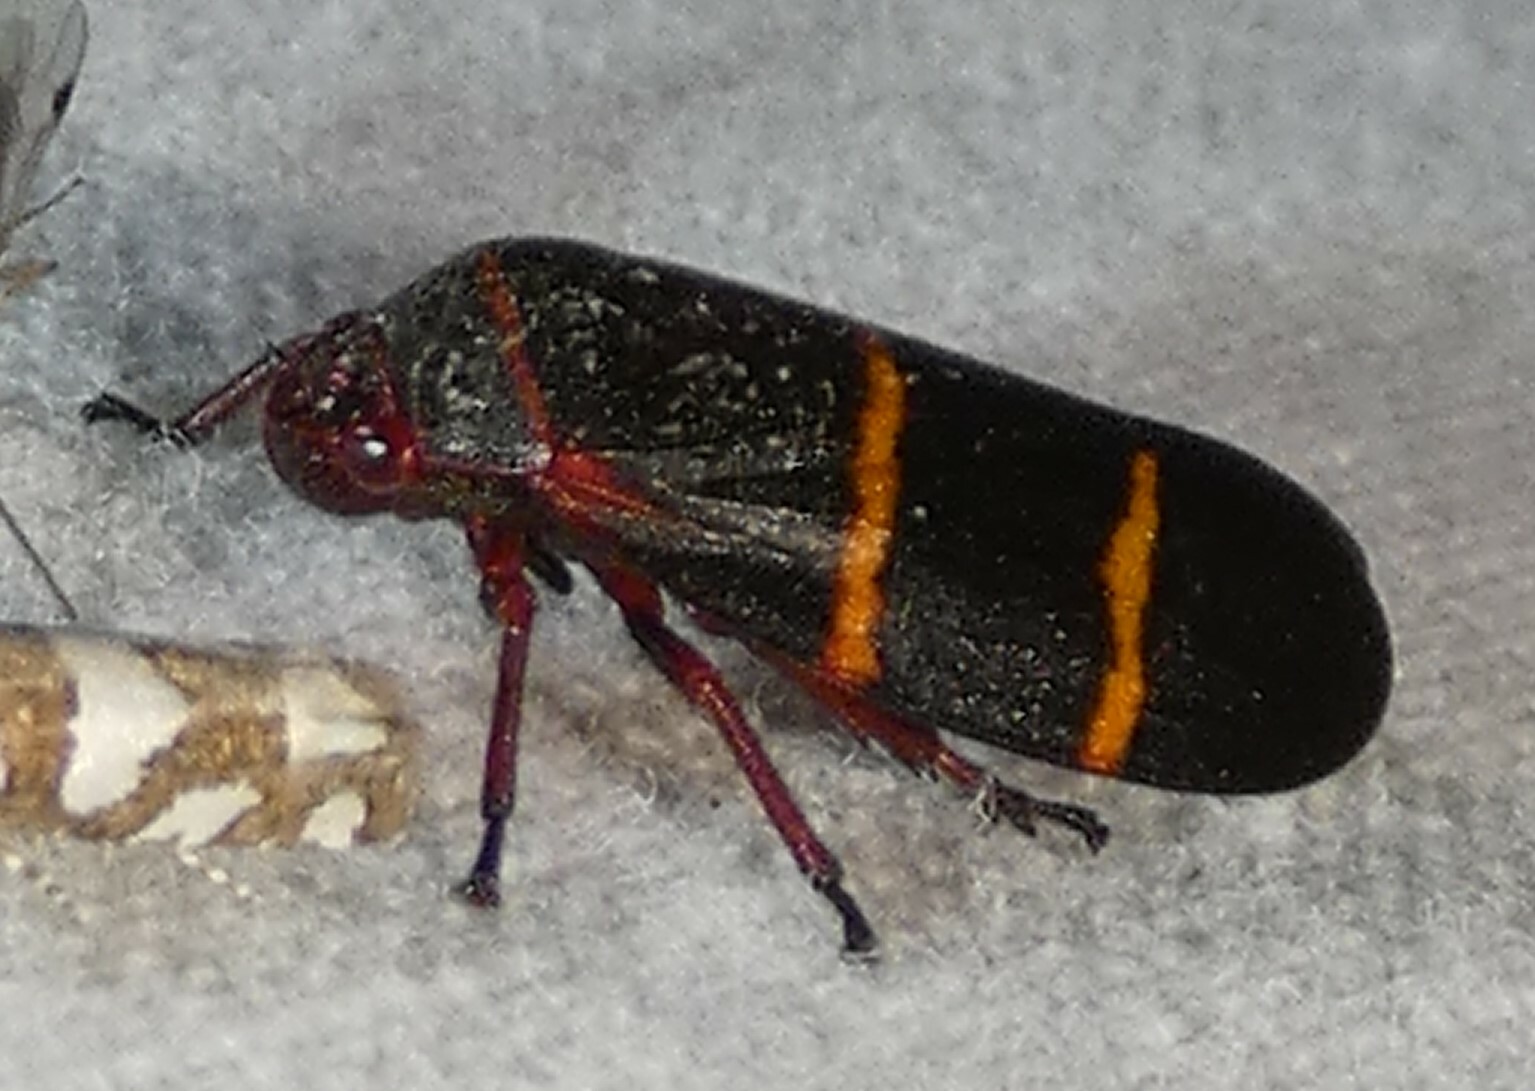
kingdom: Animalia
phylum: Arthropoda
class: Insecta
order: Hemiptera
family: Cercopidae
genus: Prosapia
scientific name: Prosapia bicincta
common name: Twolined spittlebug
